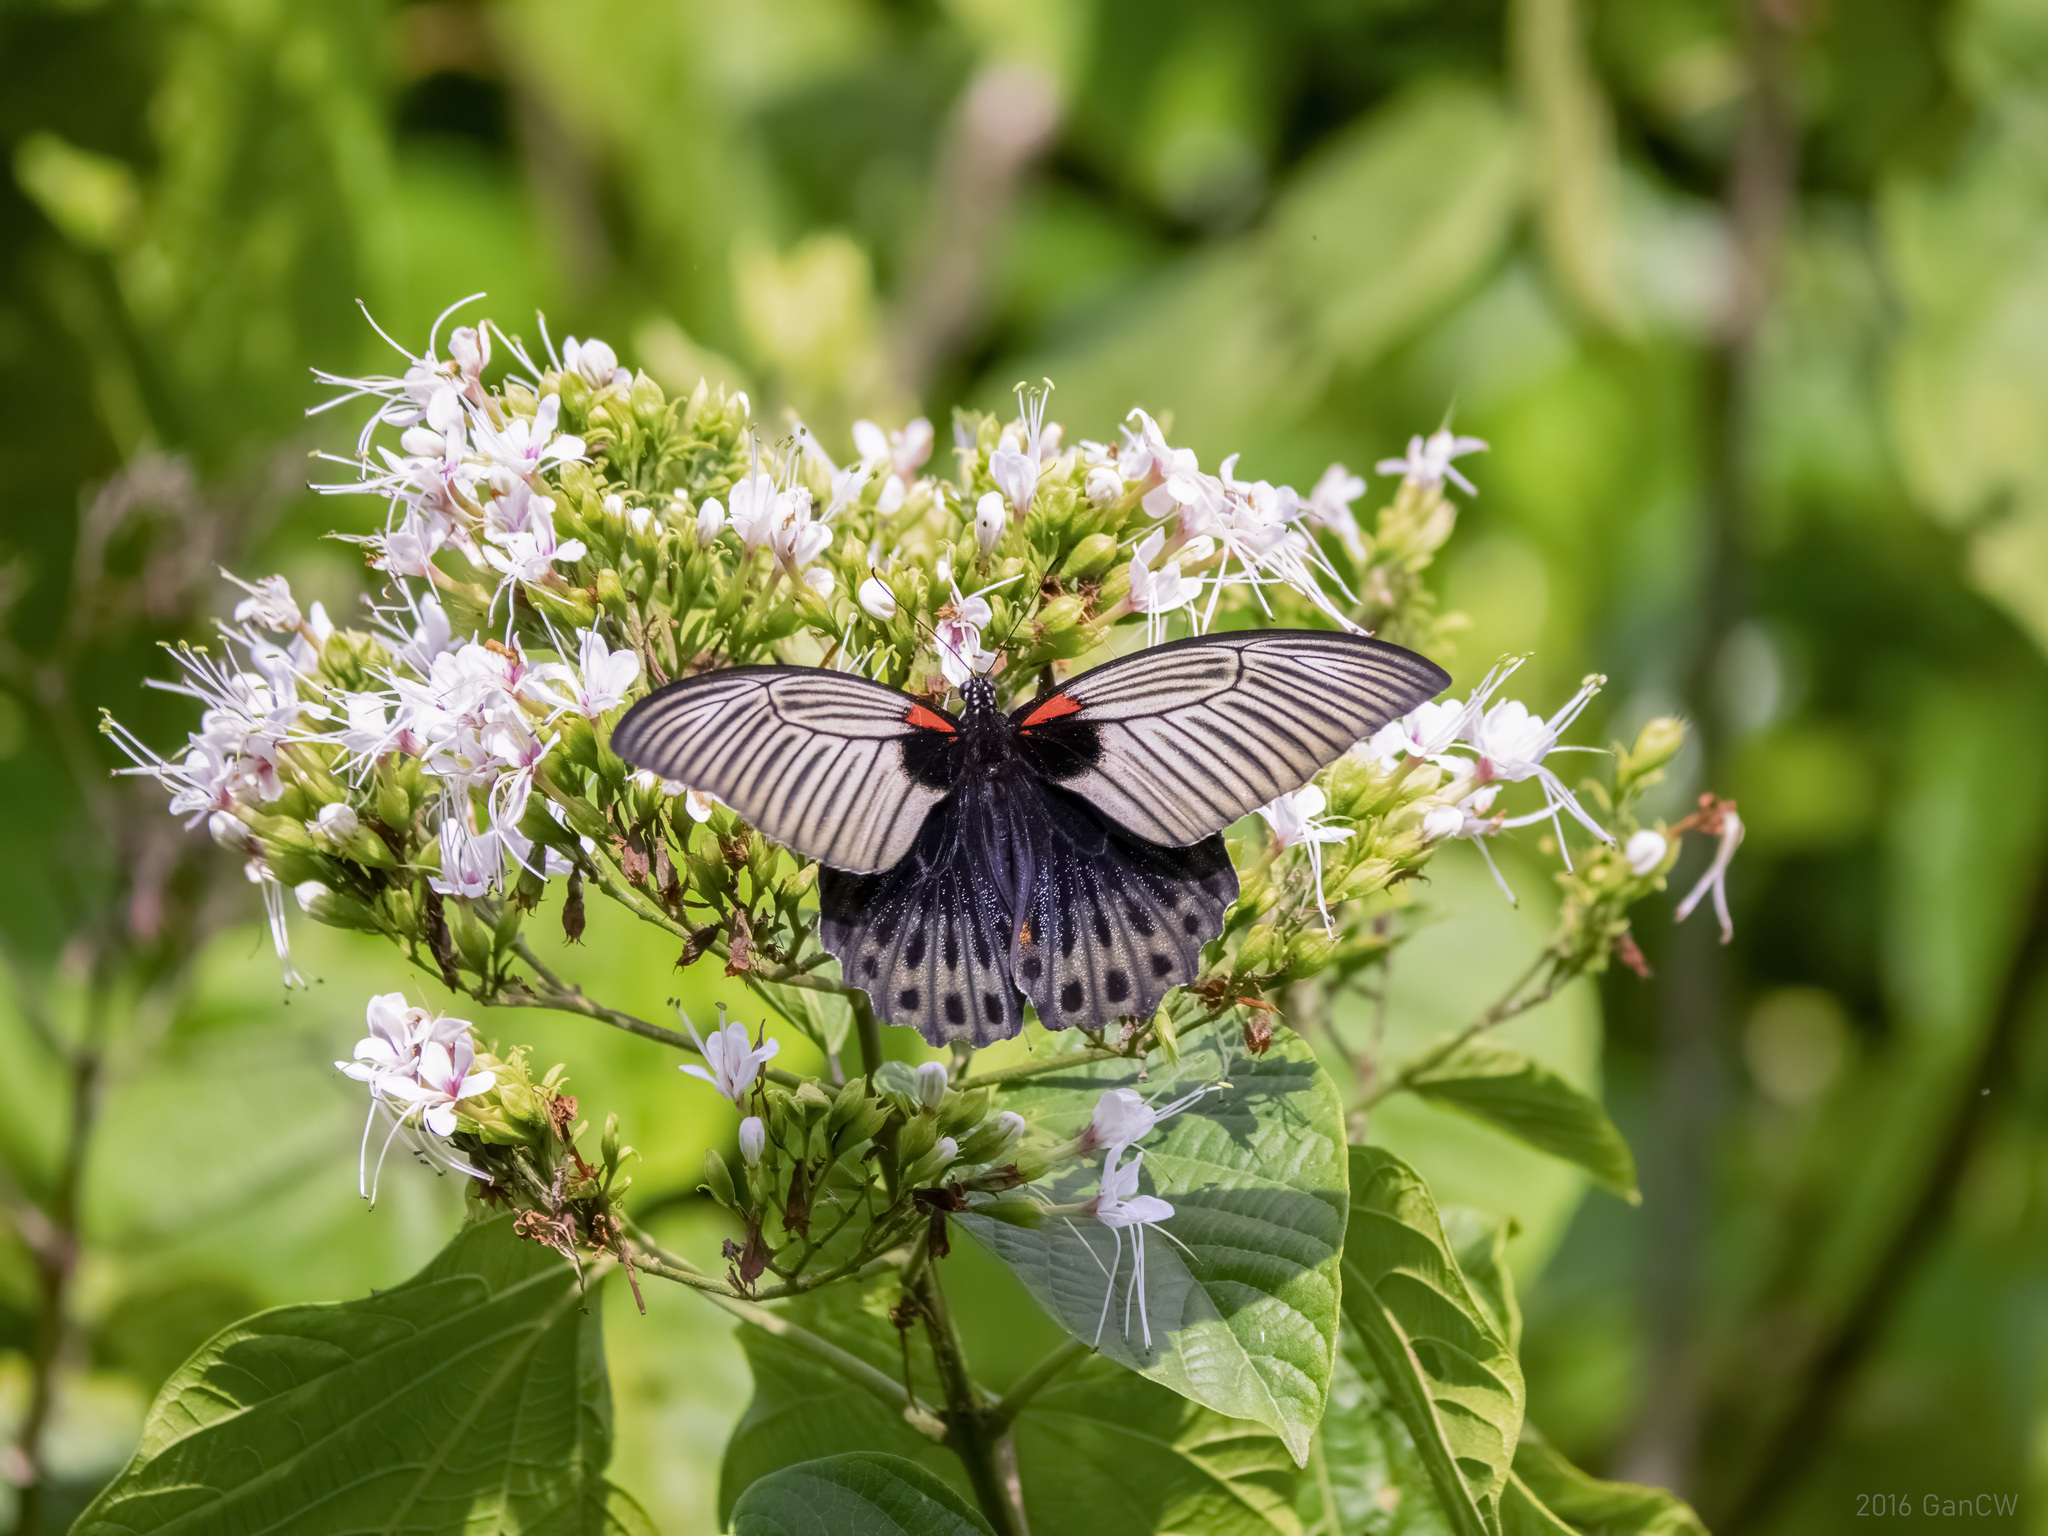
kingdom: Animalia
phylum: Arthropoda
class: Insecta
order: Lepidoptera
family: Papilionidae
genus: Papilio
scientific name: Papilio memnon
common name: Great mormon
